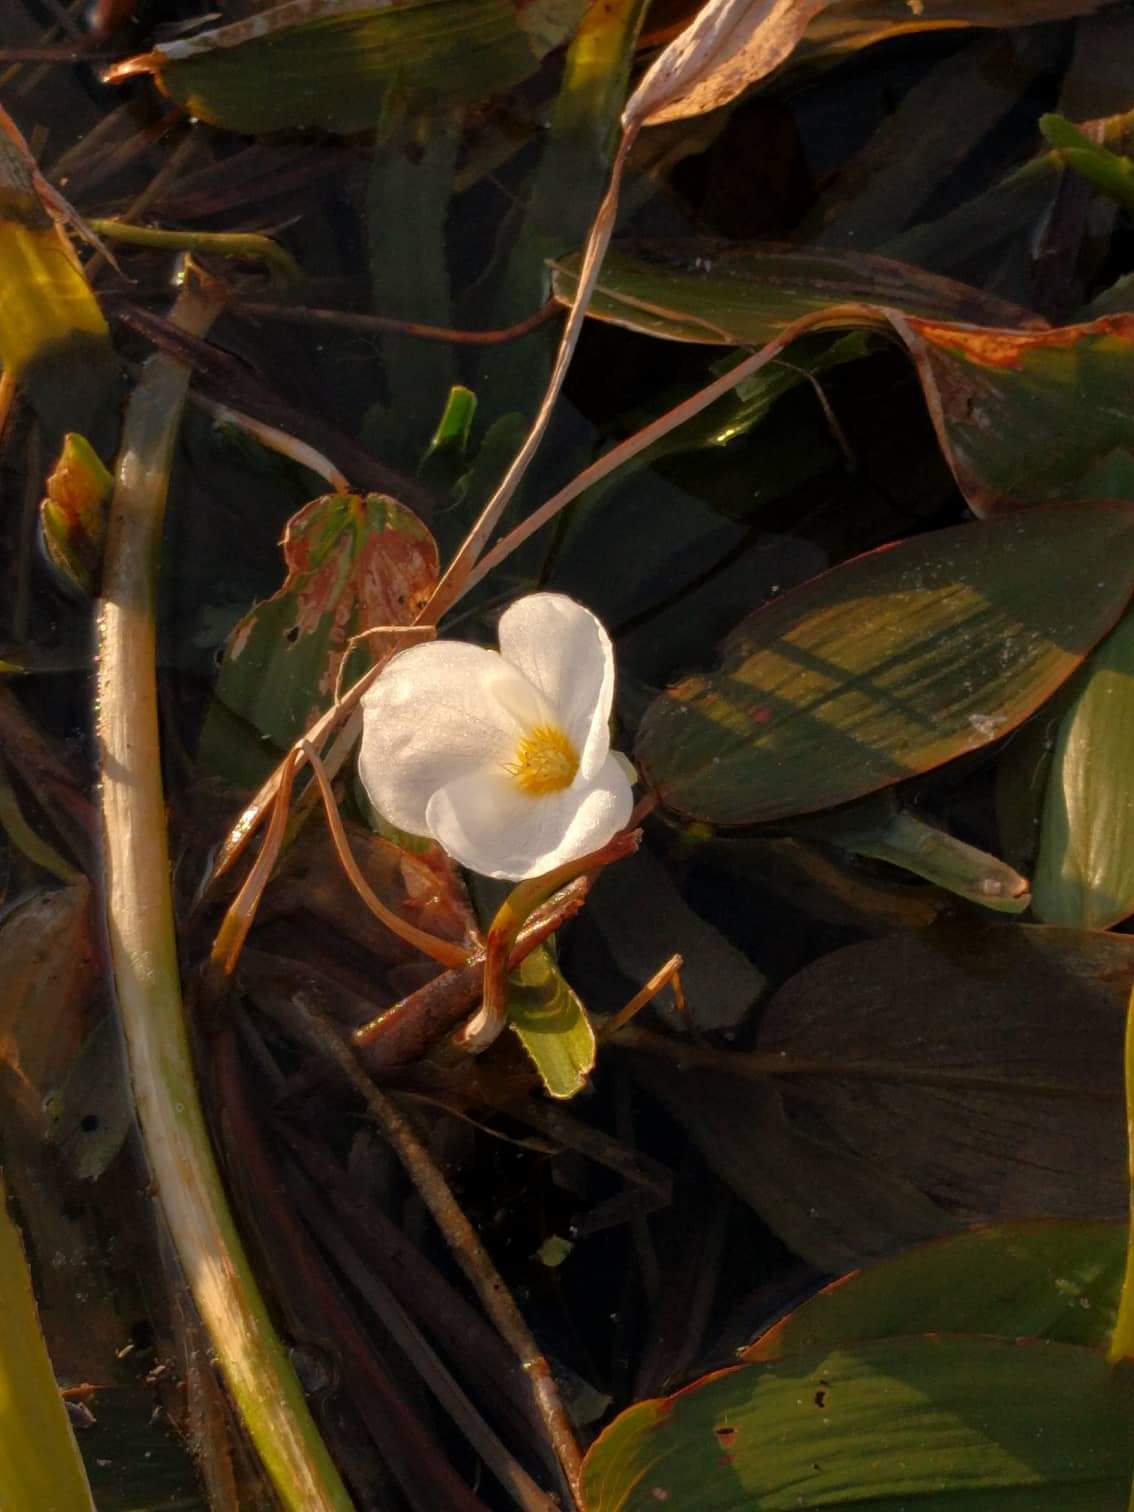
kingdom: Plantae
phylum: Tracheophyta
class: Liliopsida
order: Alismatales
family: Hydrocharitaceae
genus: Stratiotes
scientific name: Stratiotes aloides
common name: Water-soldier
